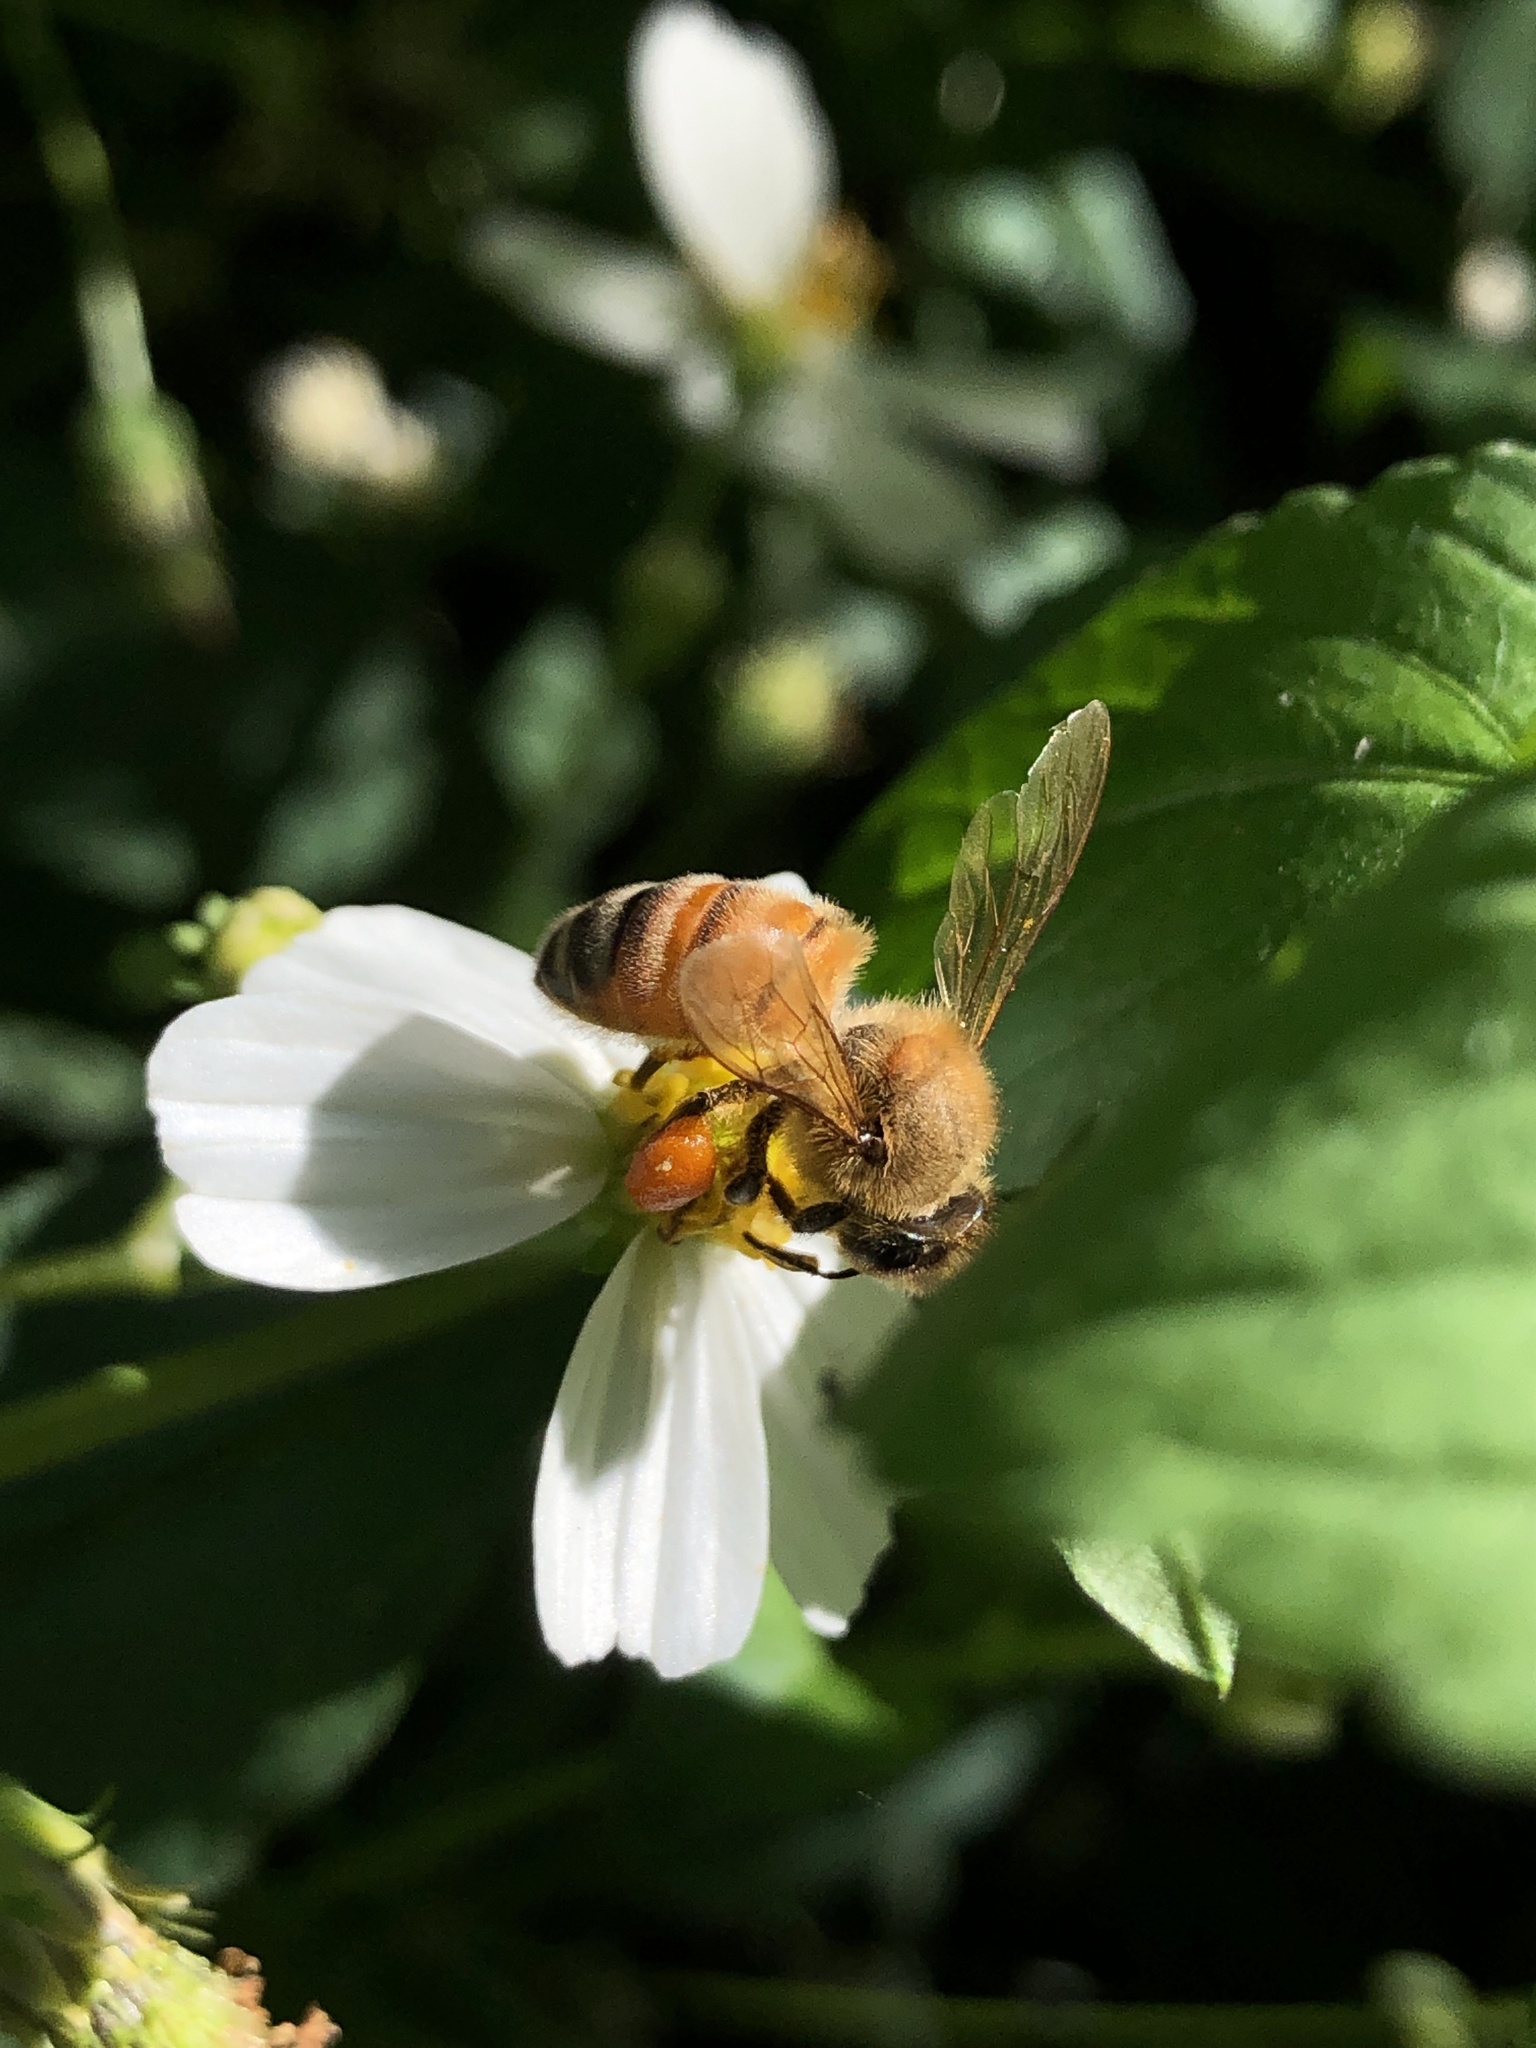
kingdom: Animalia
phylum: Arthropoda
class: Insecta
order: Hymenoptera
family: Apidae
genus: Apis
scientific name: Apis mellifera
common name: Honey bee
